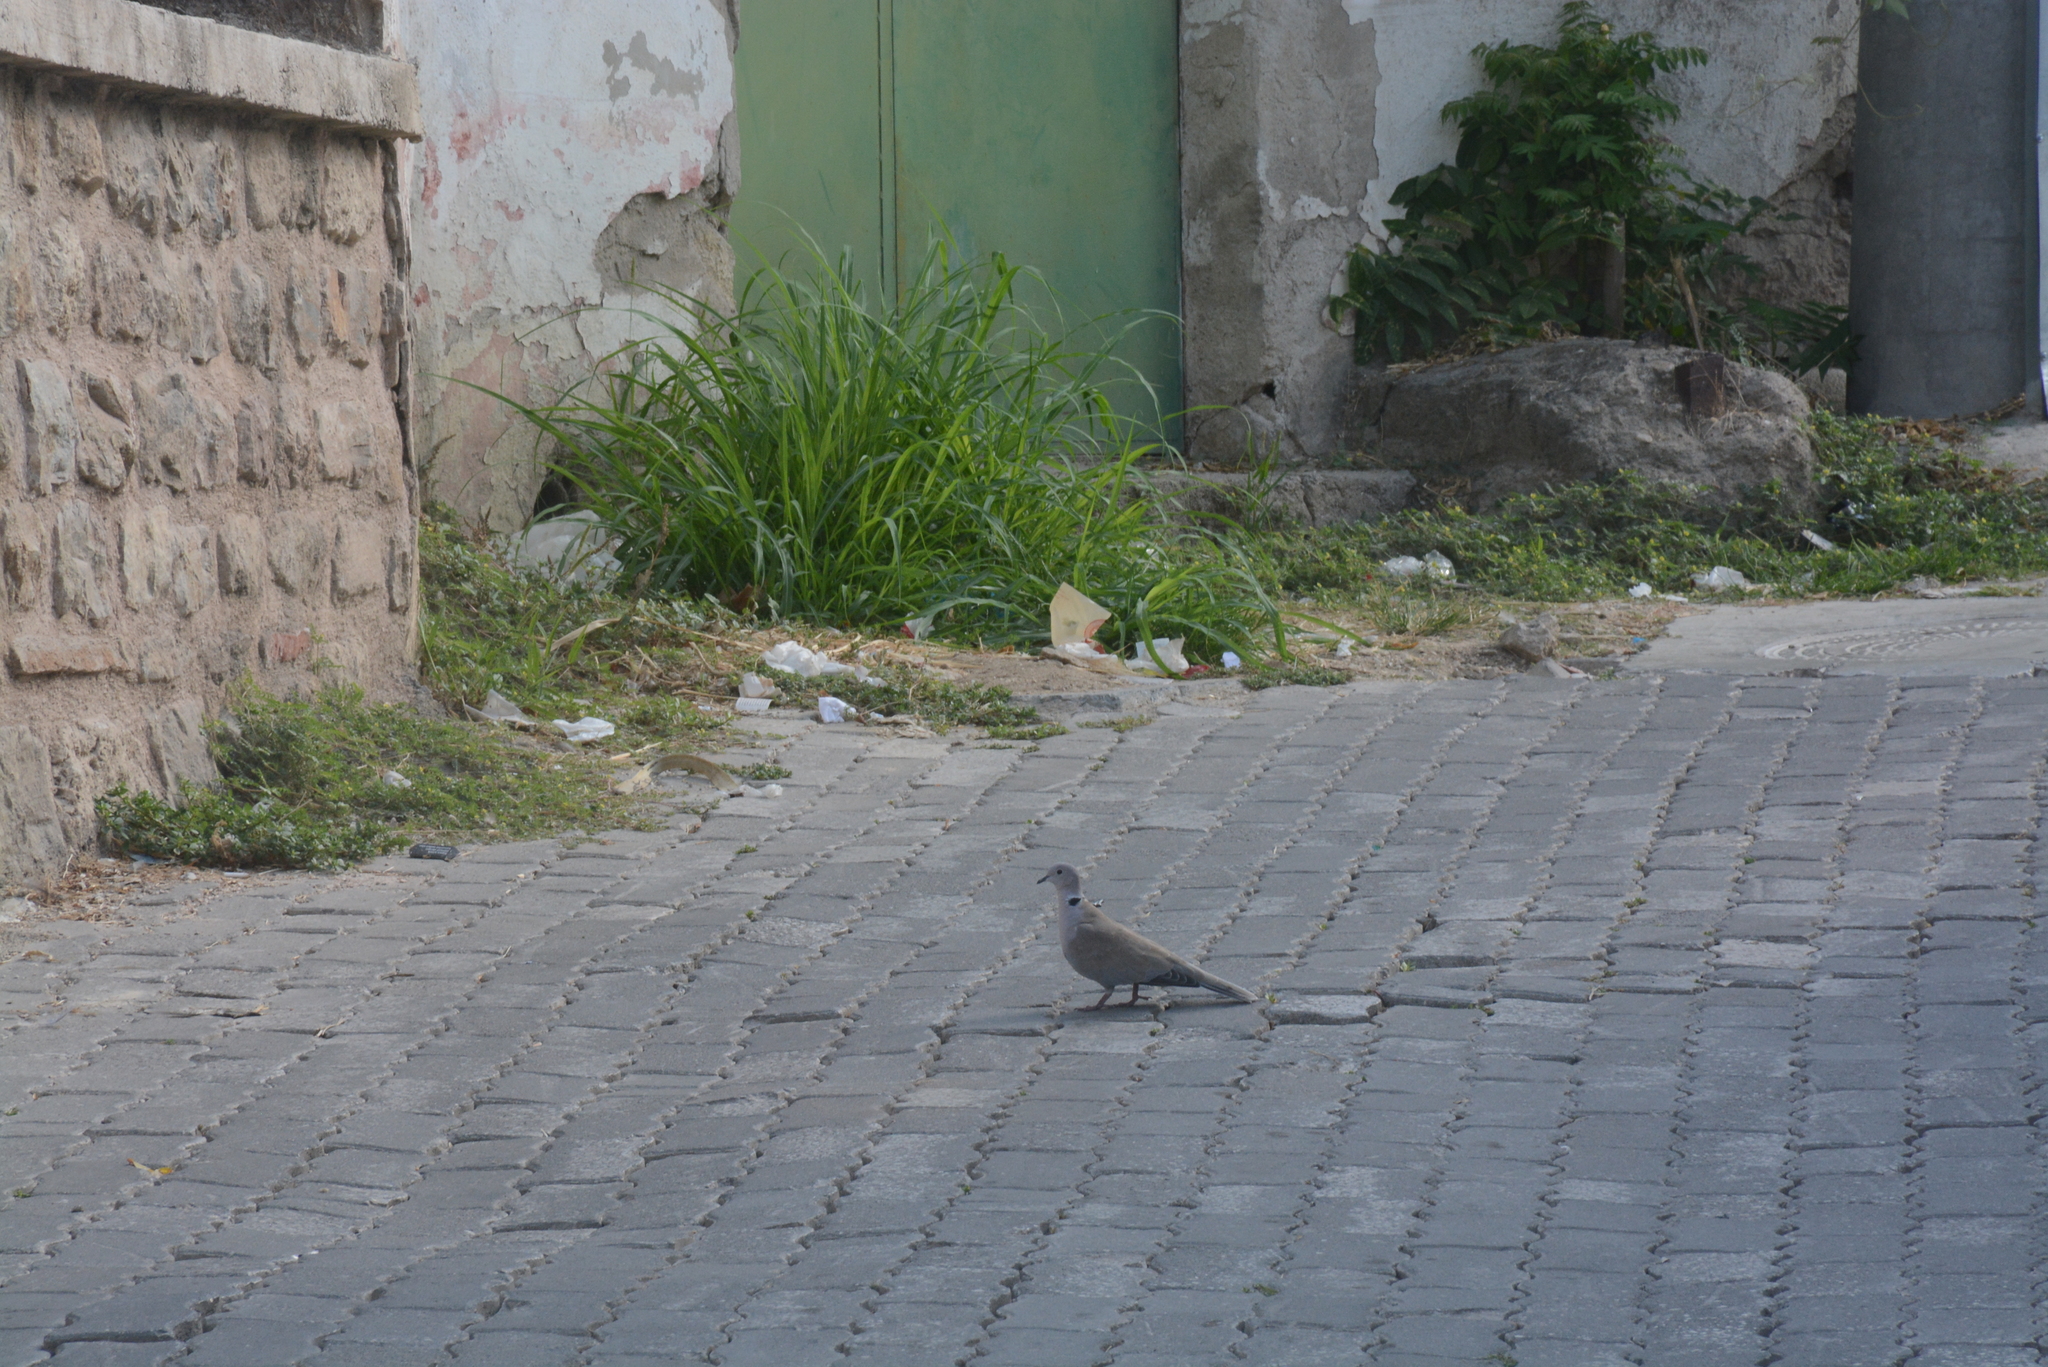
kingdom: Animalia
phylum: Chordata
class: Aves
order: Columbiformes
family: Columbidae
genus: Streptopelia
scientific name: Streptopelia decaocto
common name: Eurasian collared dove
